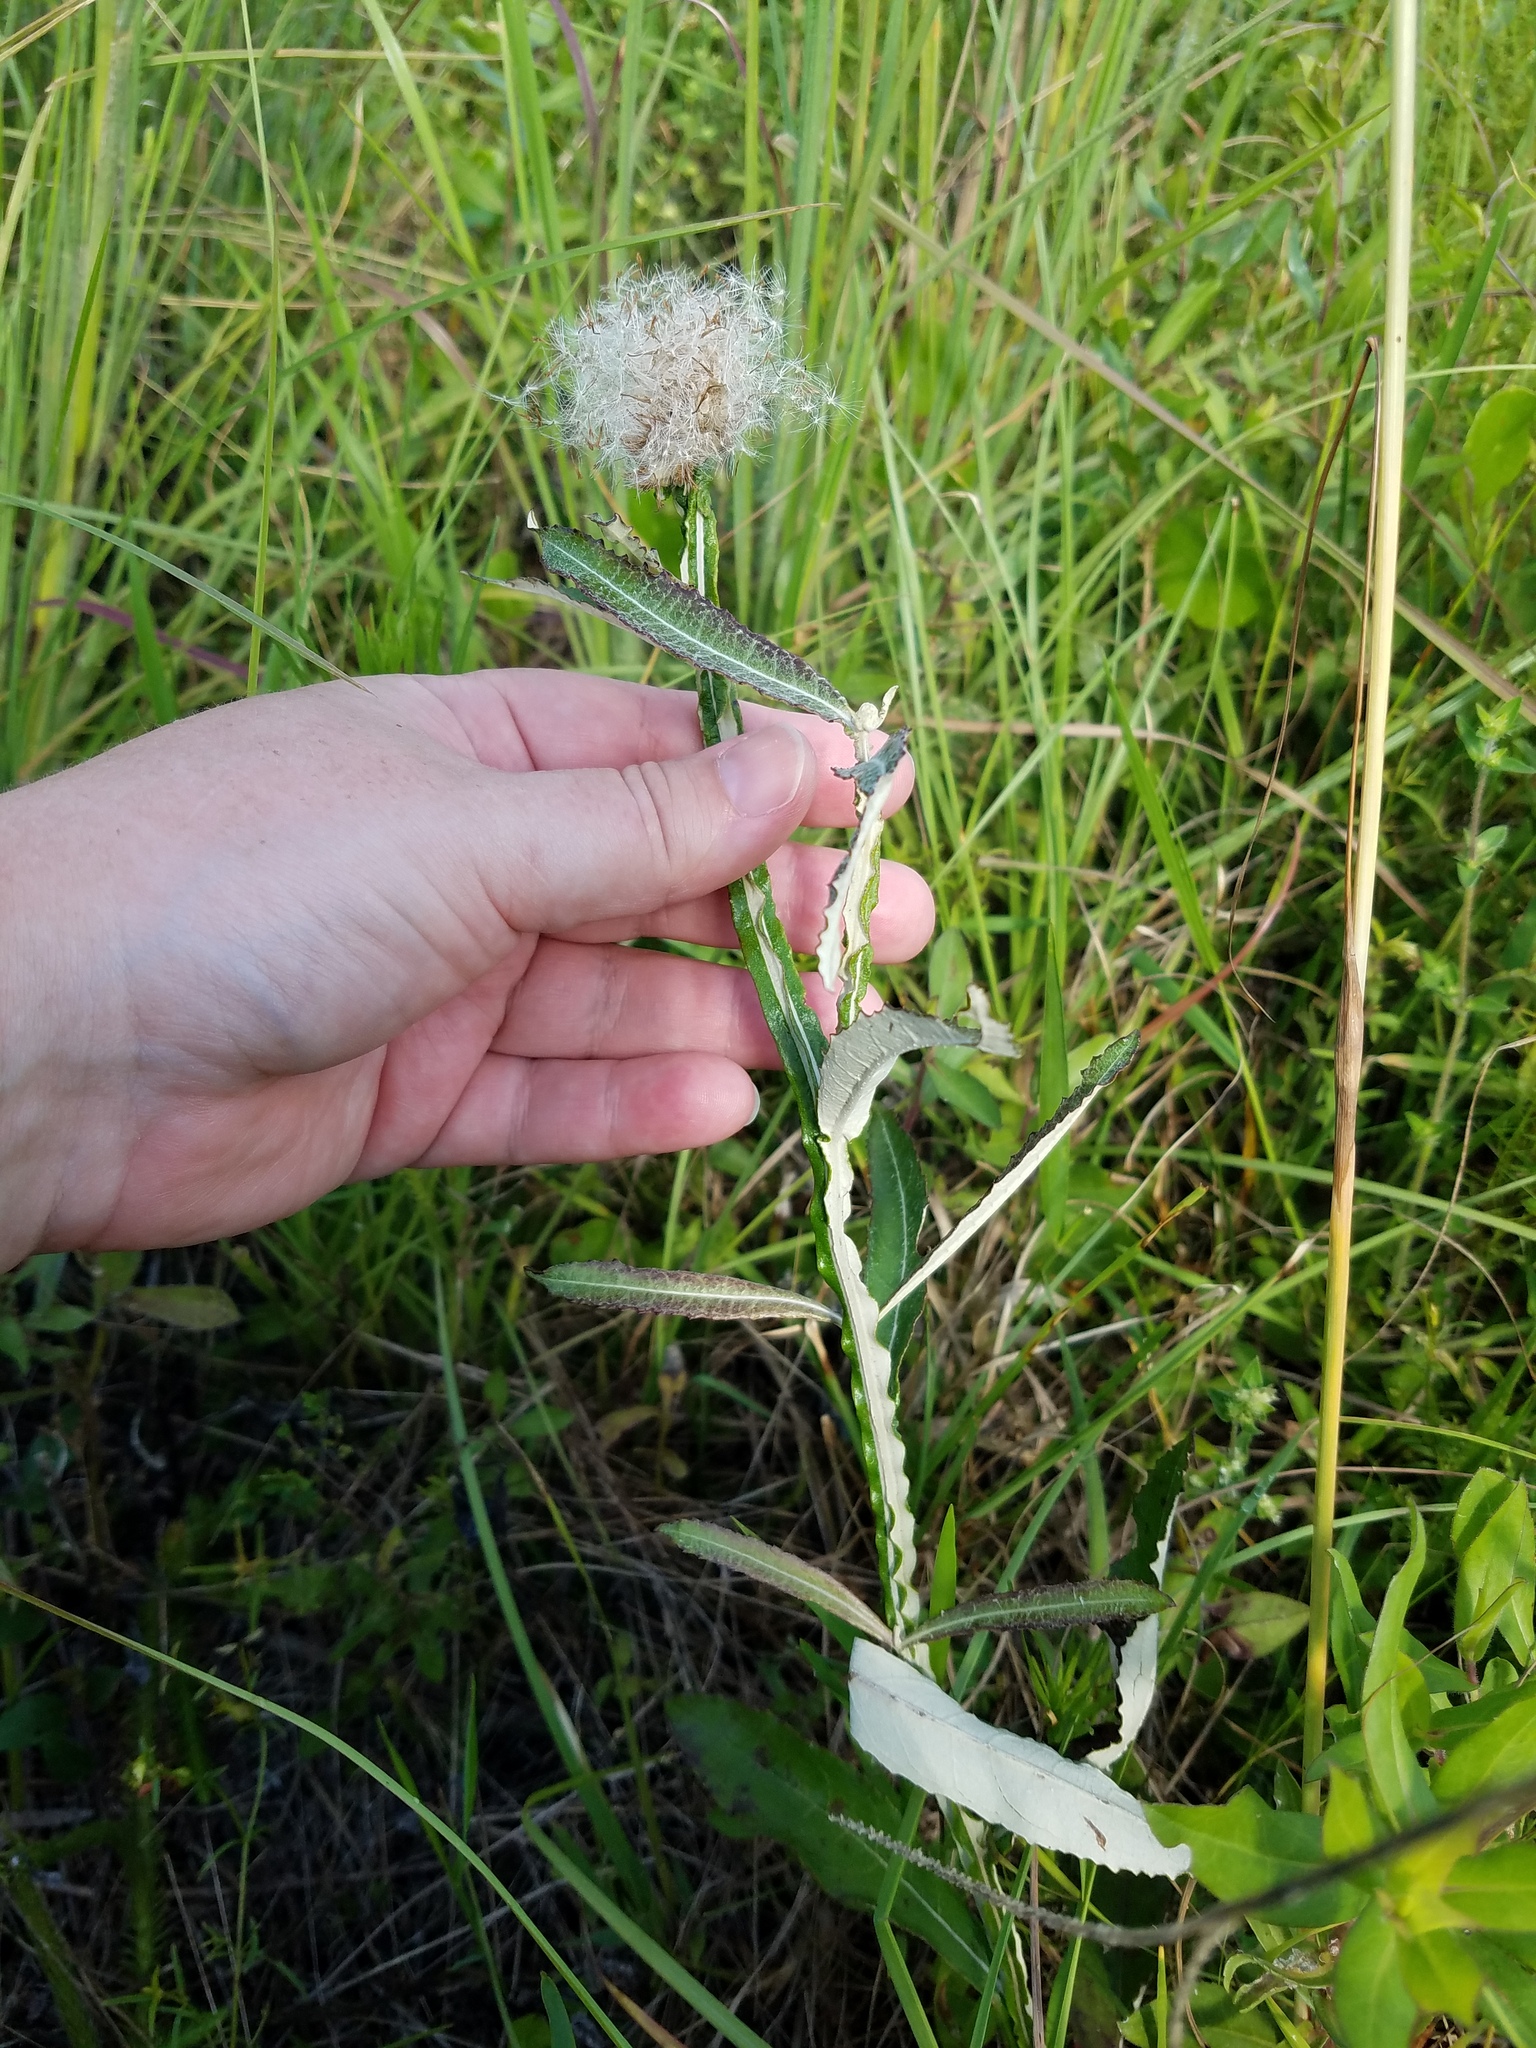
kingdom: Plantae
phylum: Tracheophyta
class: Magnoliopsida
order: Asterales
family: Asteraceae
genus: Pterocaulon
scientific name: Pterocaulon pycnostachyum
